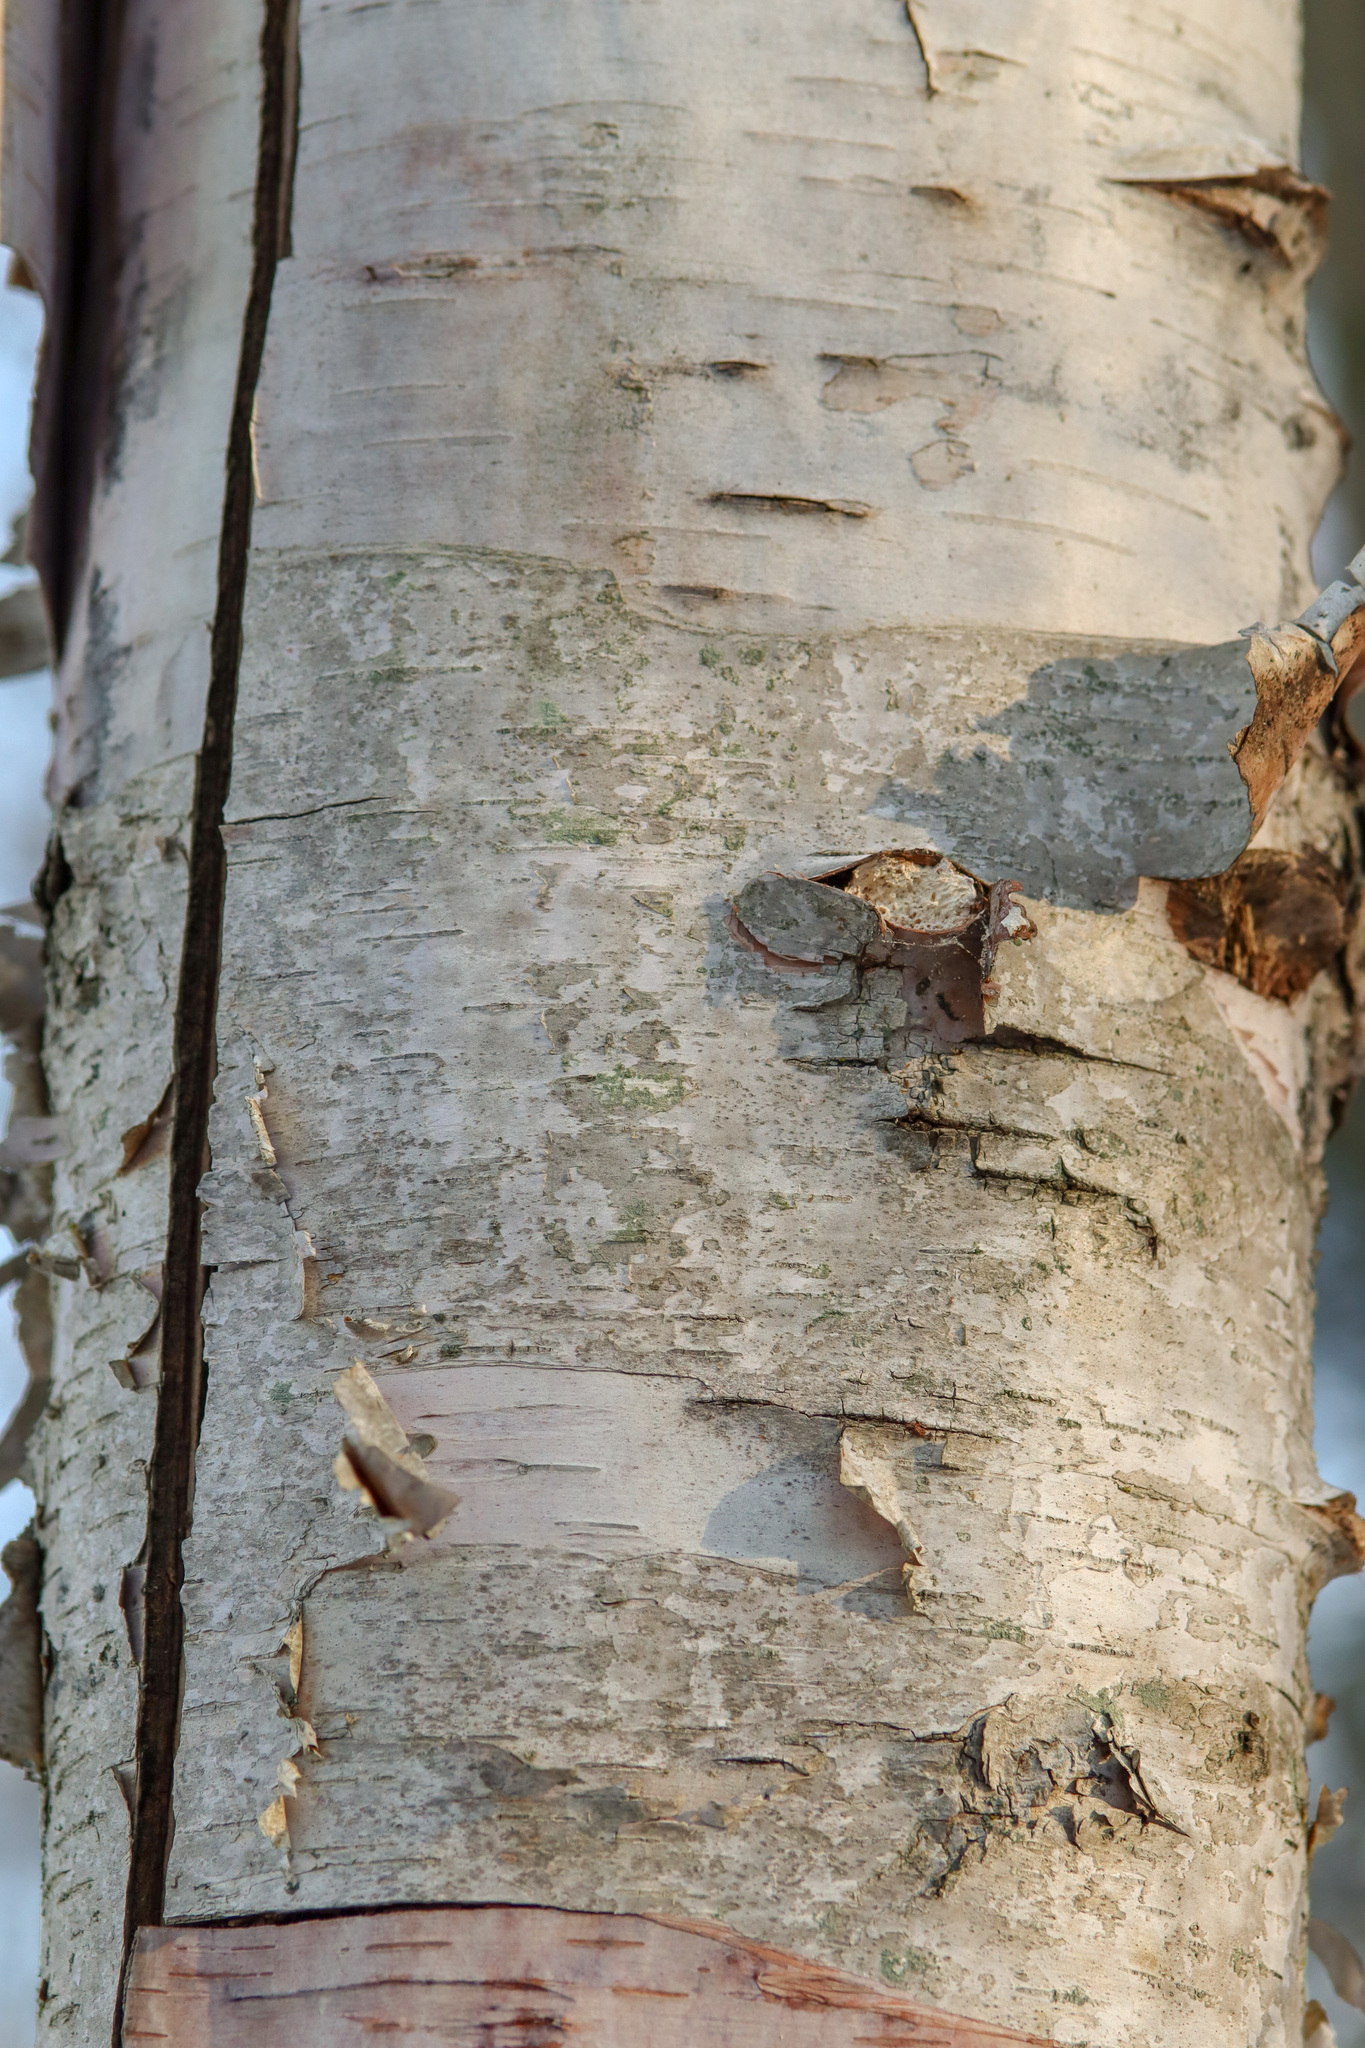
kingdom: Plantae
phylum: Tracheophyta
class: Magnoliopsida
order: Fagales
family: Betulaceae
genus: Betula
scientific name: Betula papyrifera
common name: Paper birch
